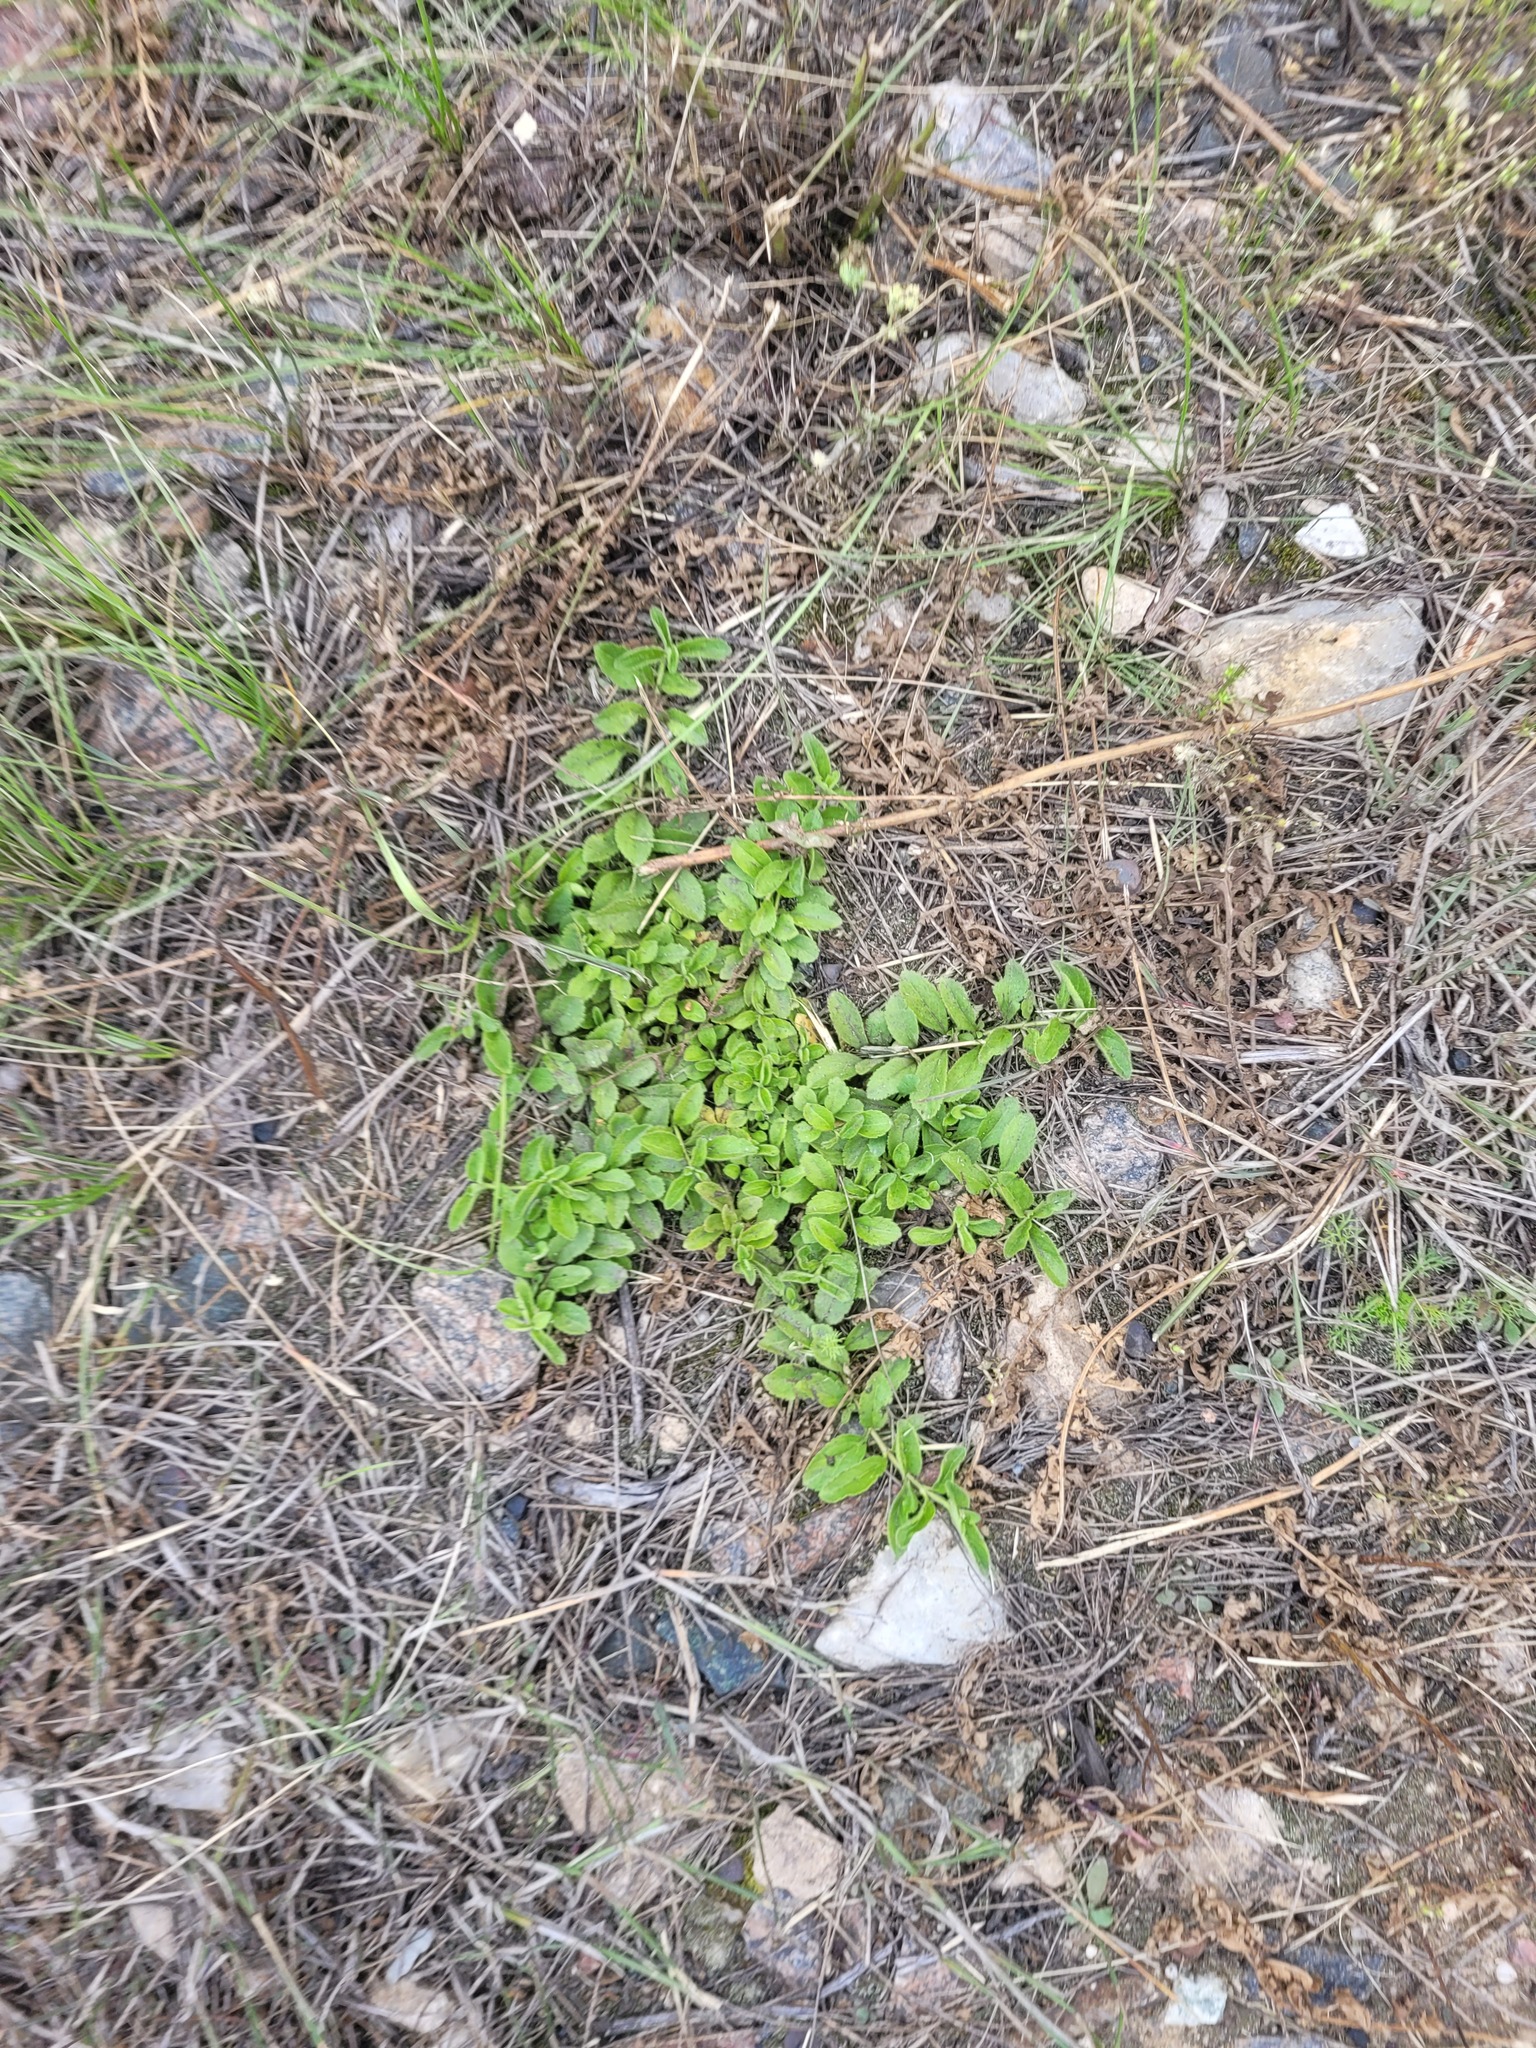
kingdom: Plantae
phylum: Tracheophyta
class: Magnoliopsida
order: Lamiales
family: Plantaginaceae
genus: Veronica
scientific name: Veronica officinalis
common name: Common speedwell
